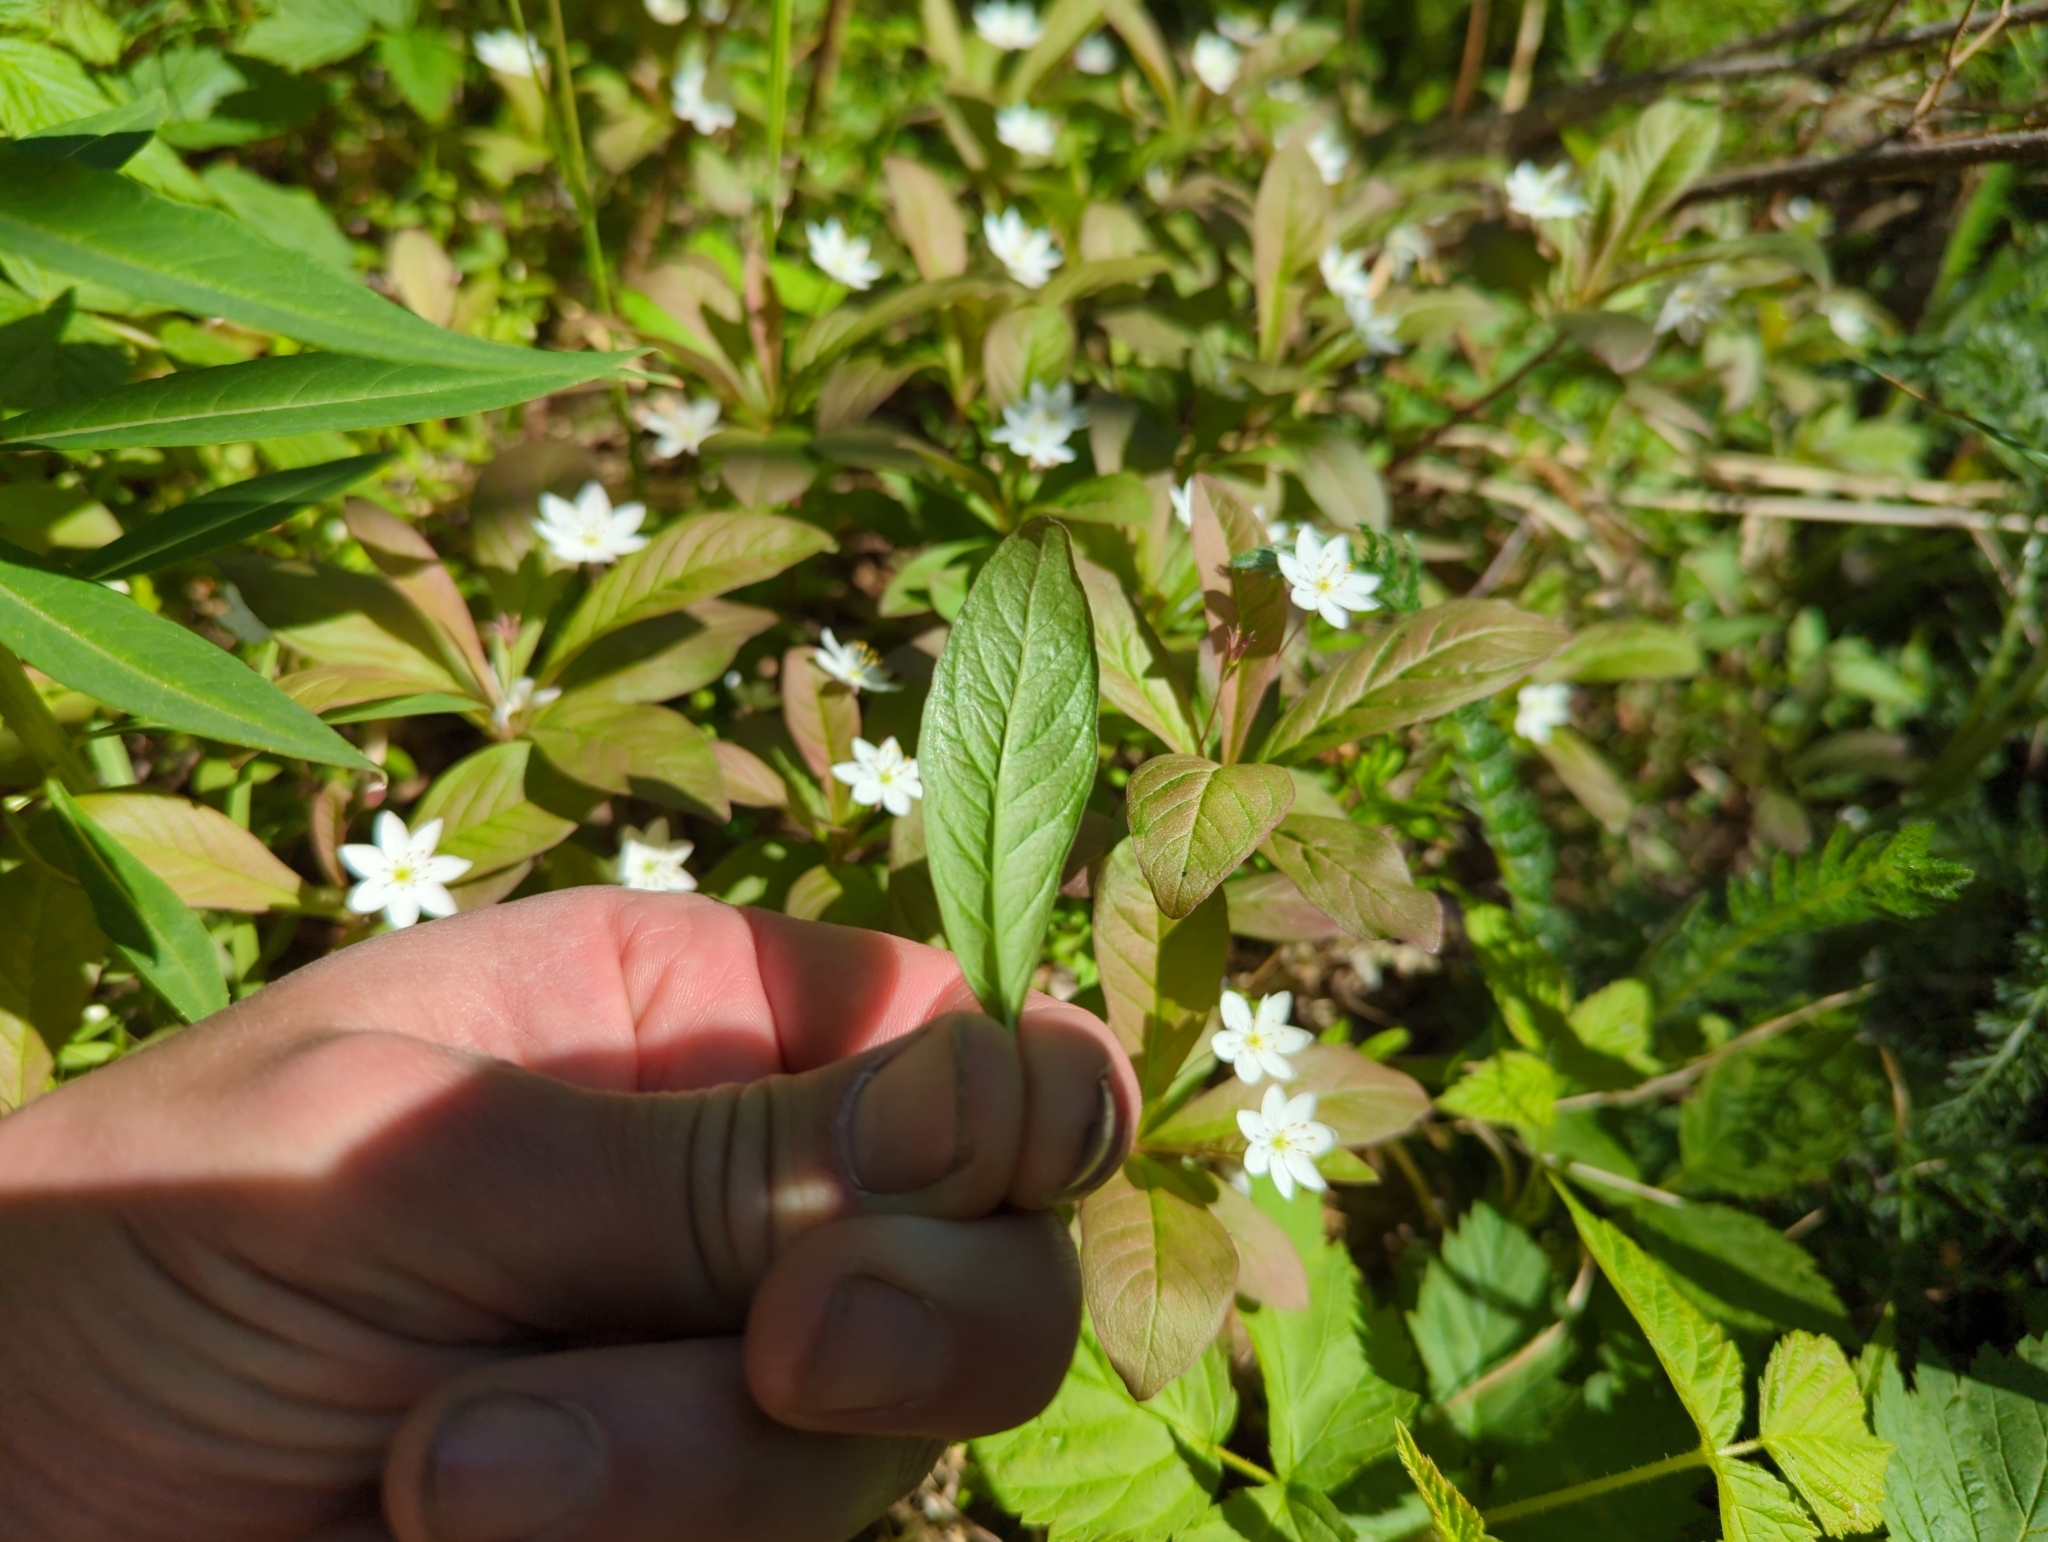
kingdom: Plantae
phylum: Tracheophyta
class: Magnoliopsida
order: Ericales
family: Primulaceae
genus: Lysimachia
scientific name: Lysimachia europaea
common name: Arctic starflower
